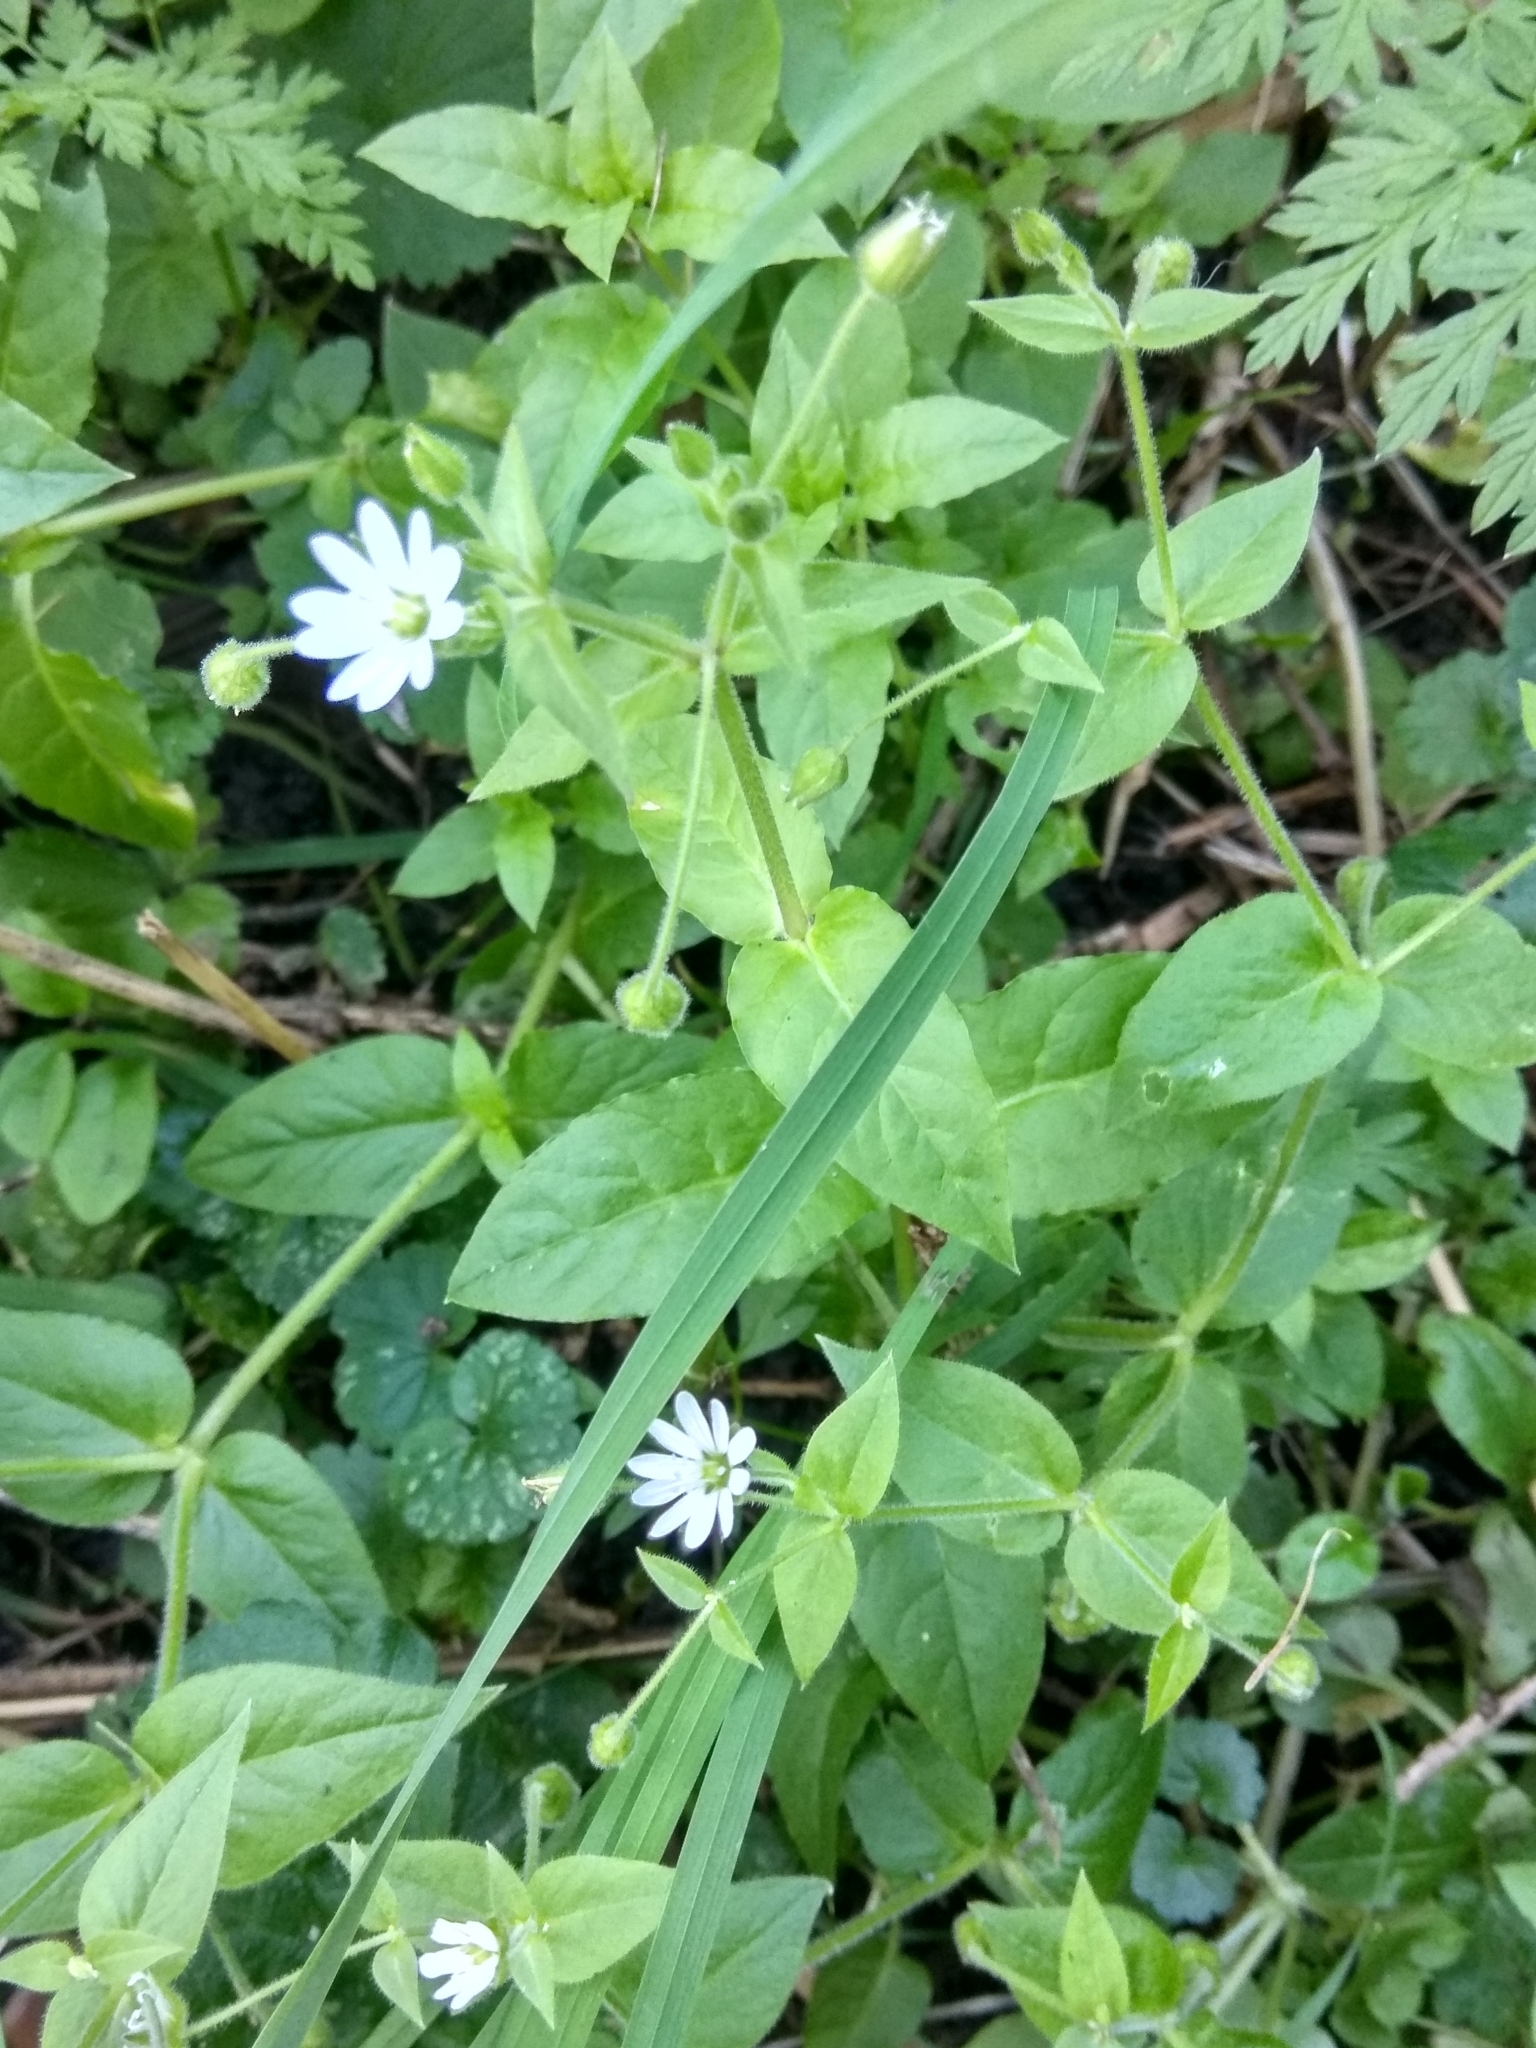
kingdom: Plantae
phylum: Tracheophyta
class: Magnoliopsida
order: Caryophyllales
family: Caryophyllaceae
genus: Stellaria
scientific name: Stellaria aquatica
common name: Water chickweed
